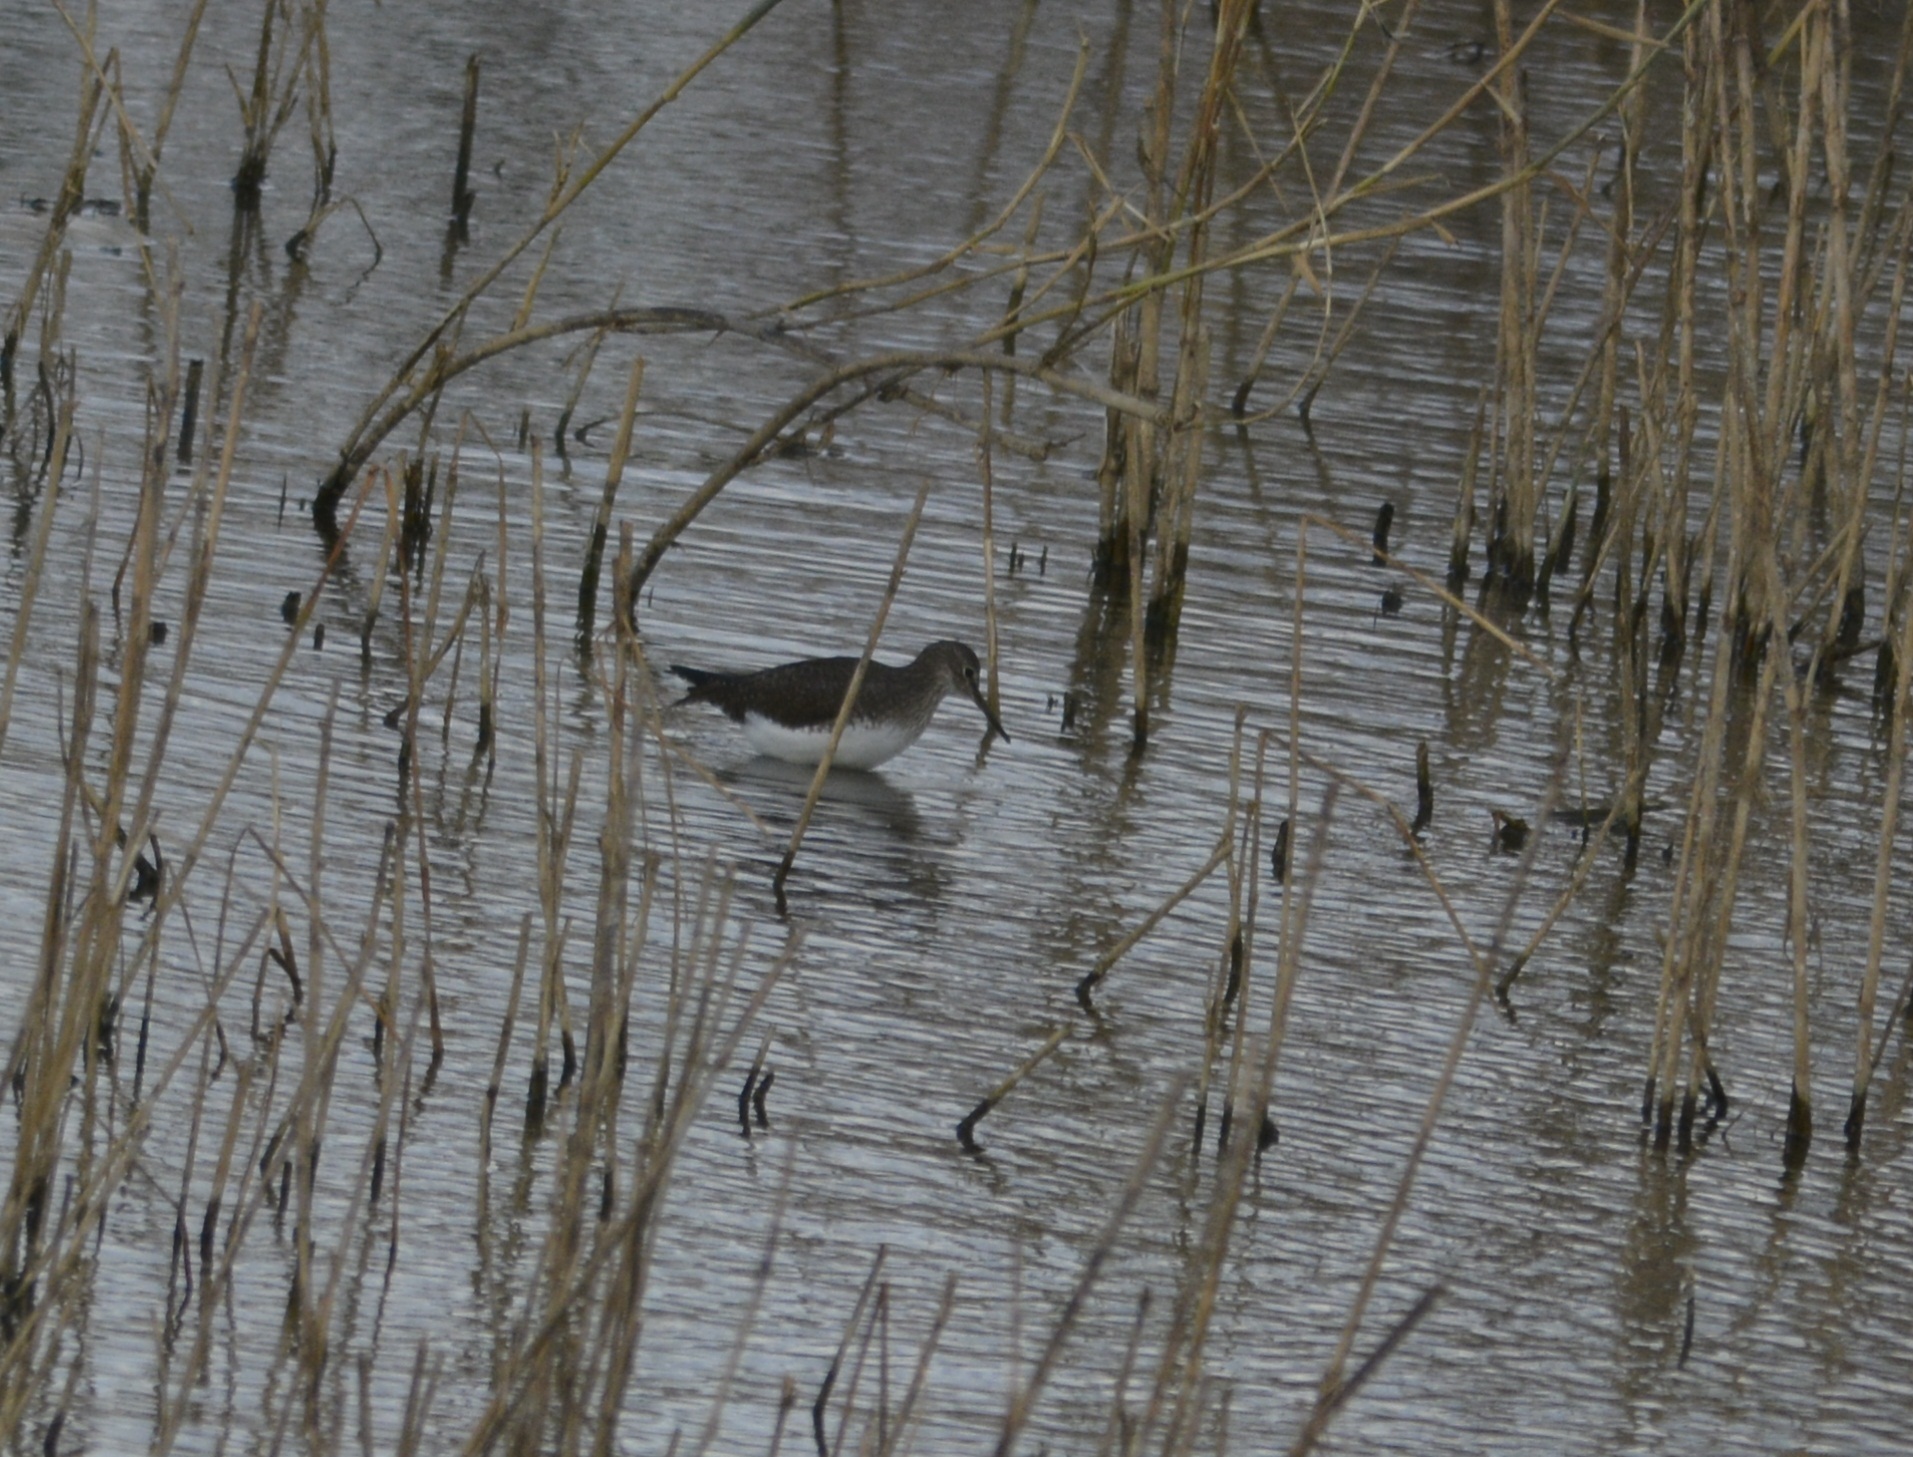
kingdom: Animalia
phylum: Chordata
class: Aves
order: Charadriiformes
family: Scolopacidae
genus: Tringa
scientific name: Tringa ochropus
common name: Green sandpiper
